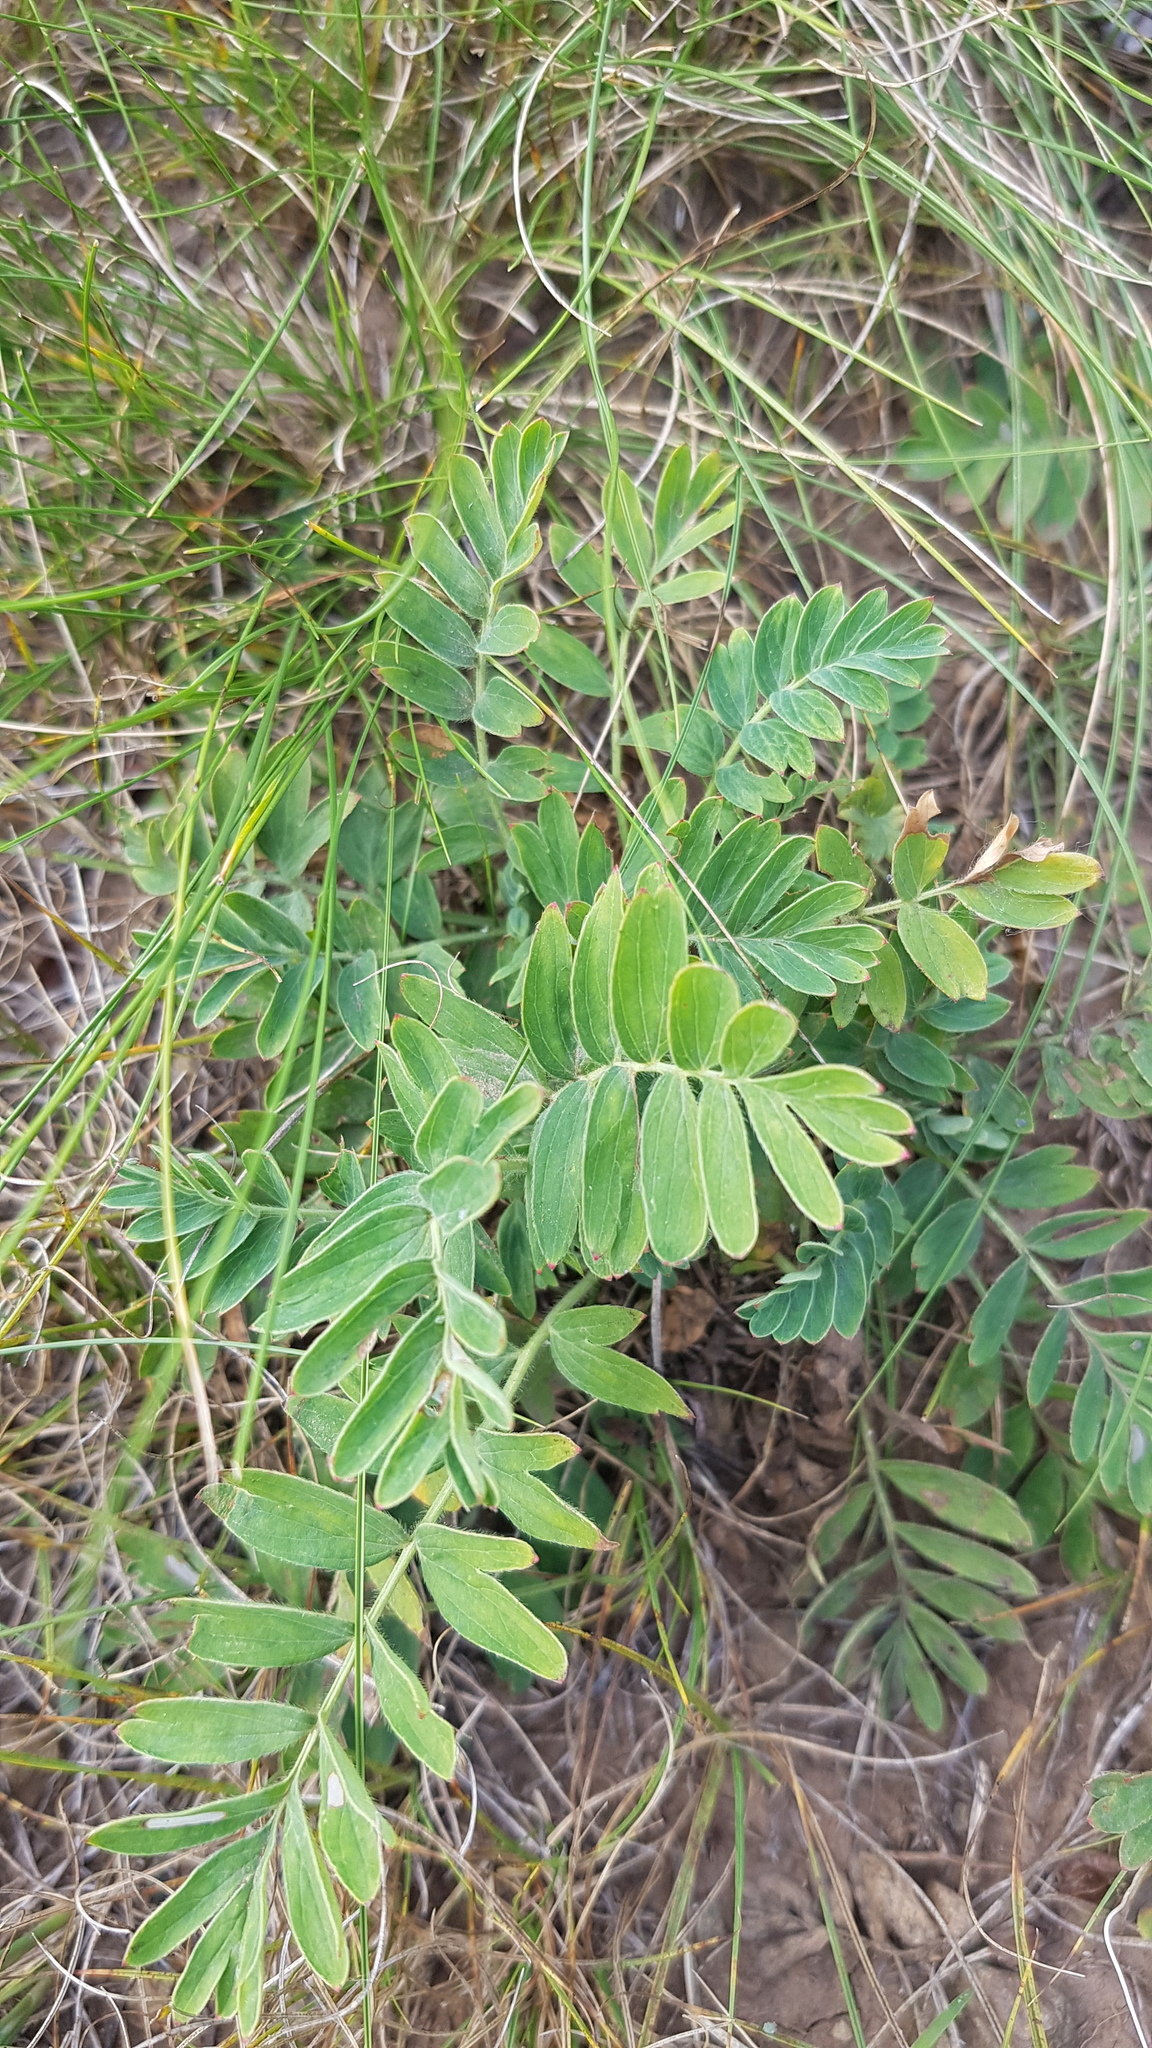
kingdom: Plantae
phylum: Tracheophyta
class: Magnoliopsida
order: Rosales
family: Rosaceae
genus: Sibbaldianthe
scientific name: Sibbaldianthe bifurca
